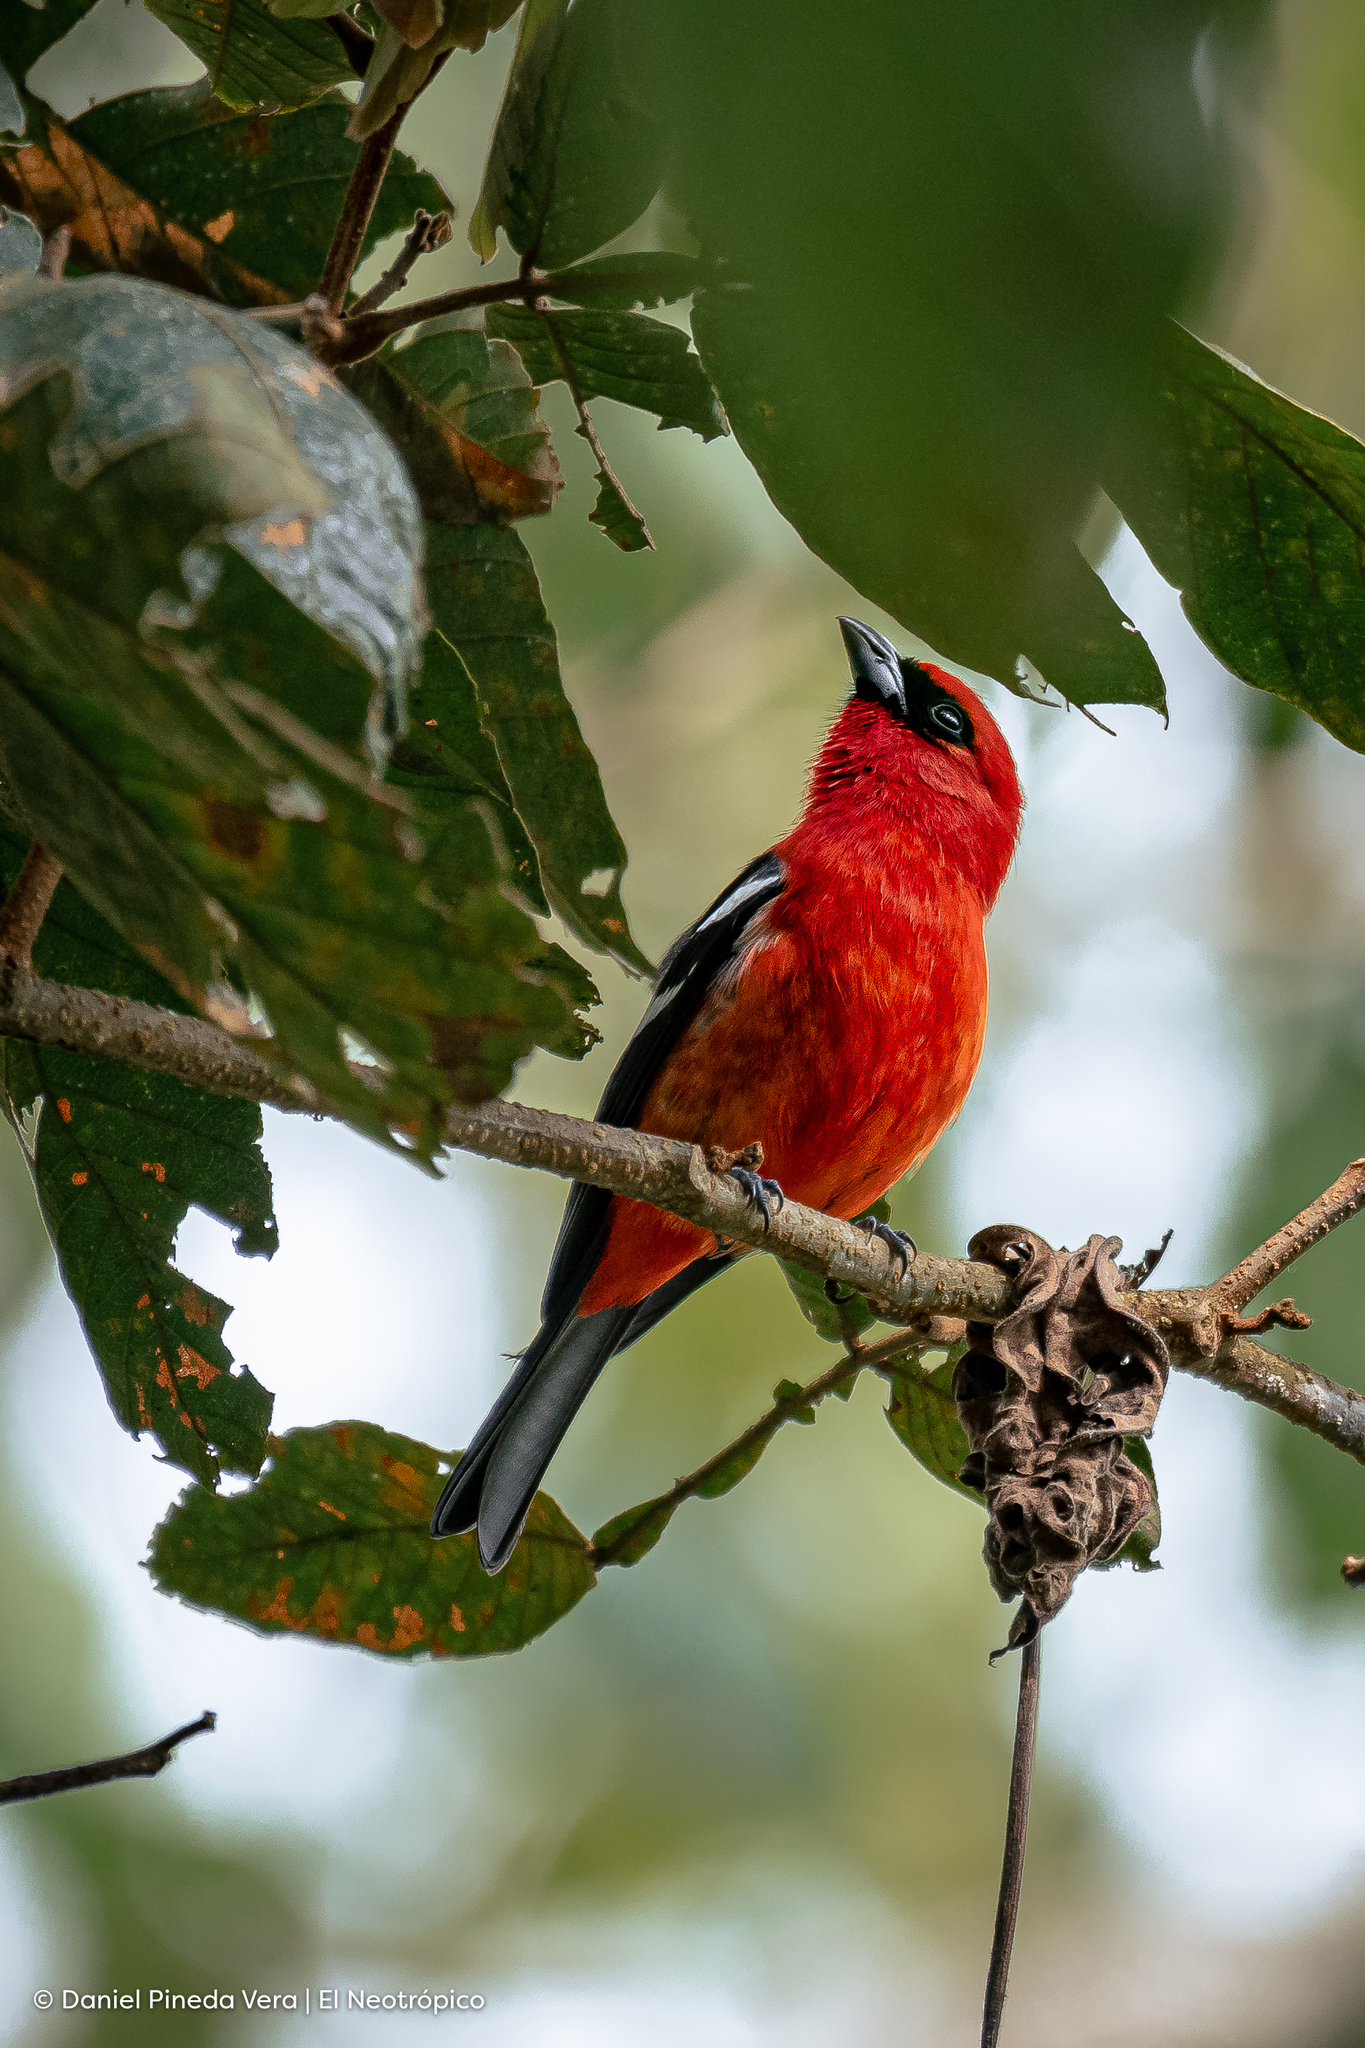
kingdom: Animalia
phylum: Chordata
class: Aves
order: Passeriformes
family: Cardinalidae
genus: Piranga
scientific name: Piranga leucoptera
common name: White-winged tanager
